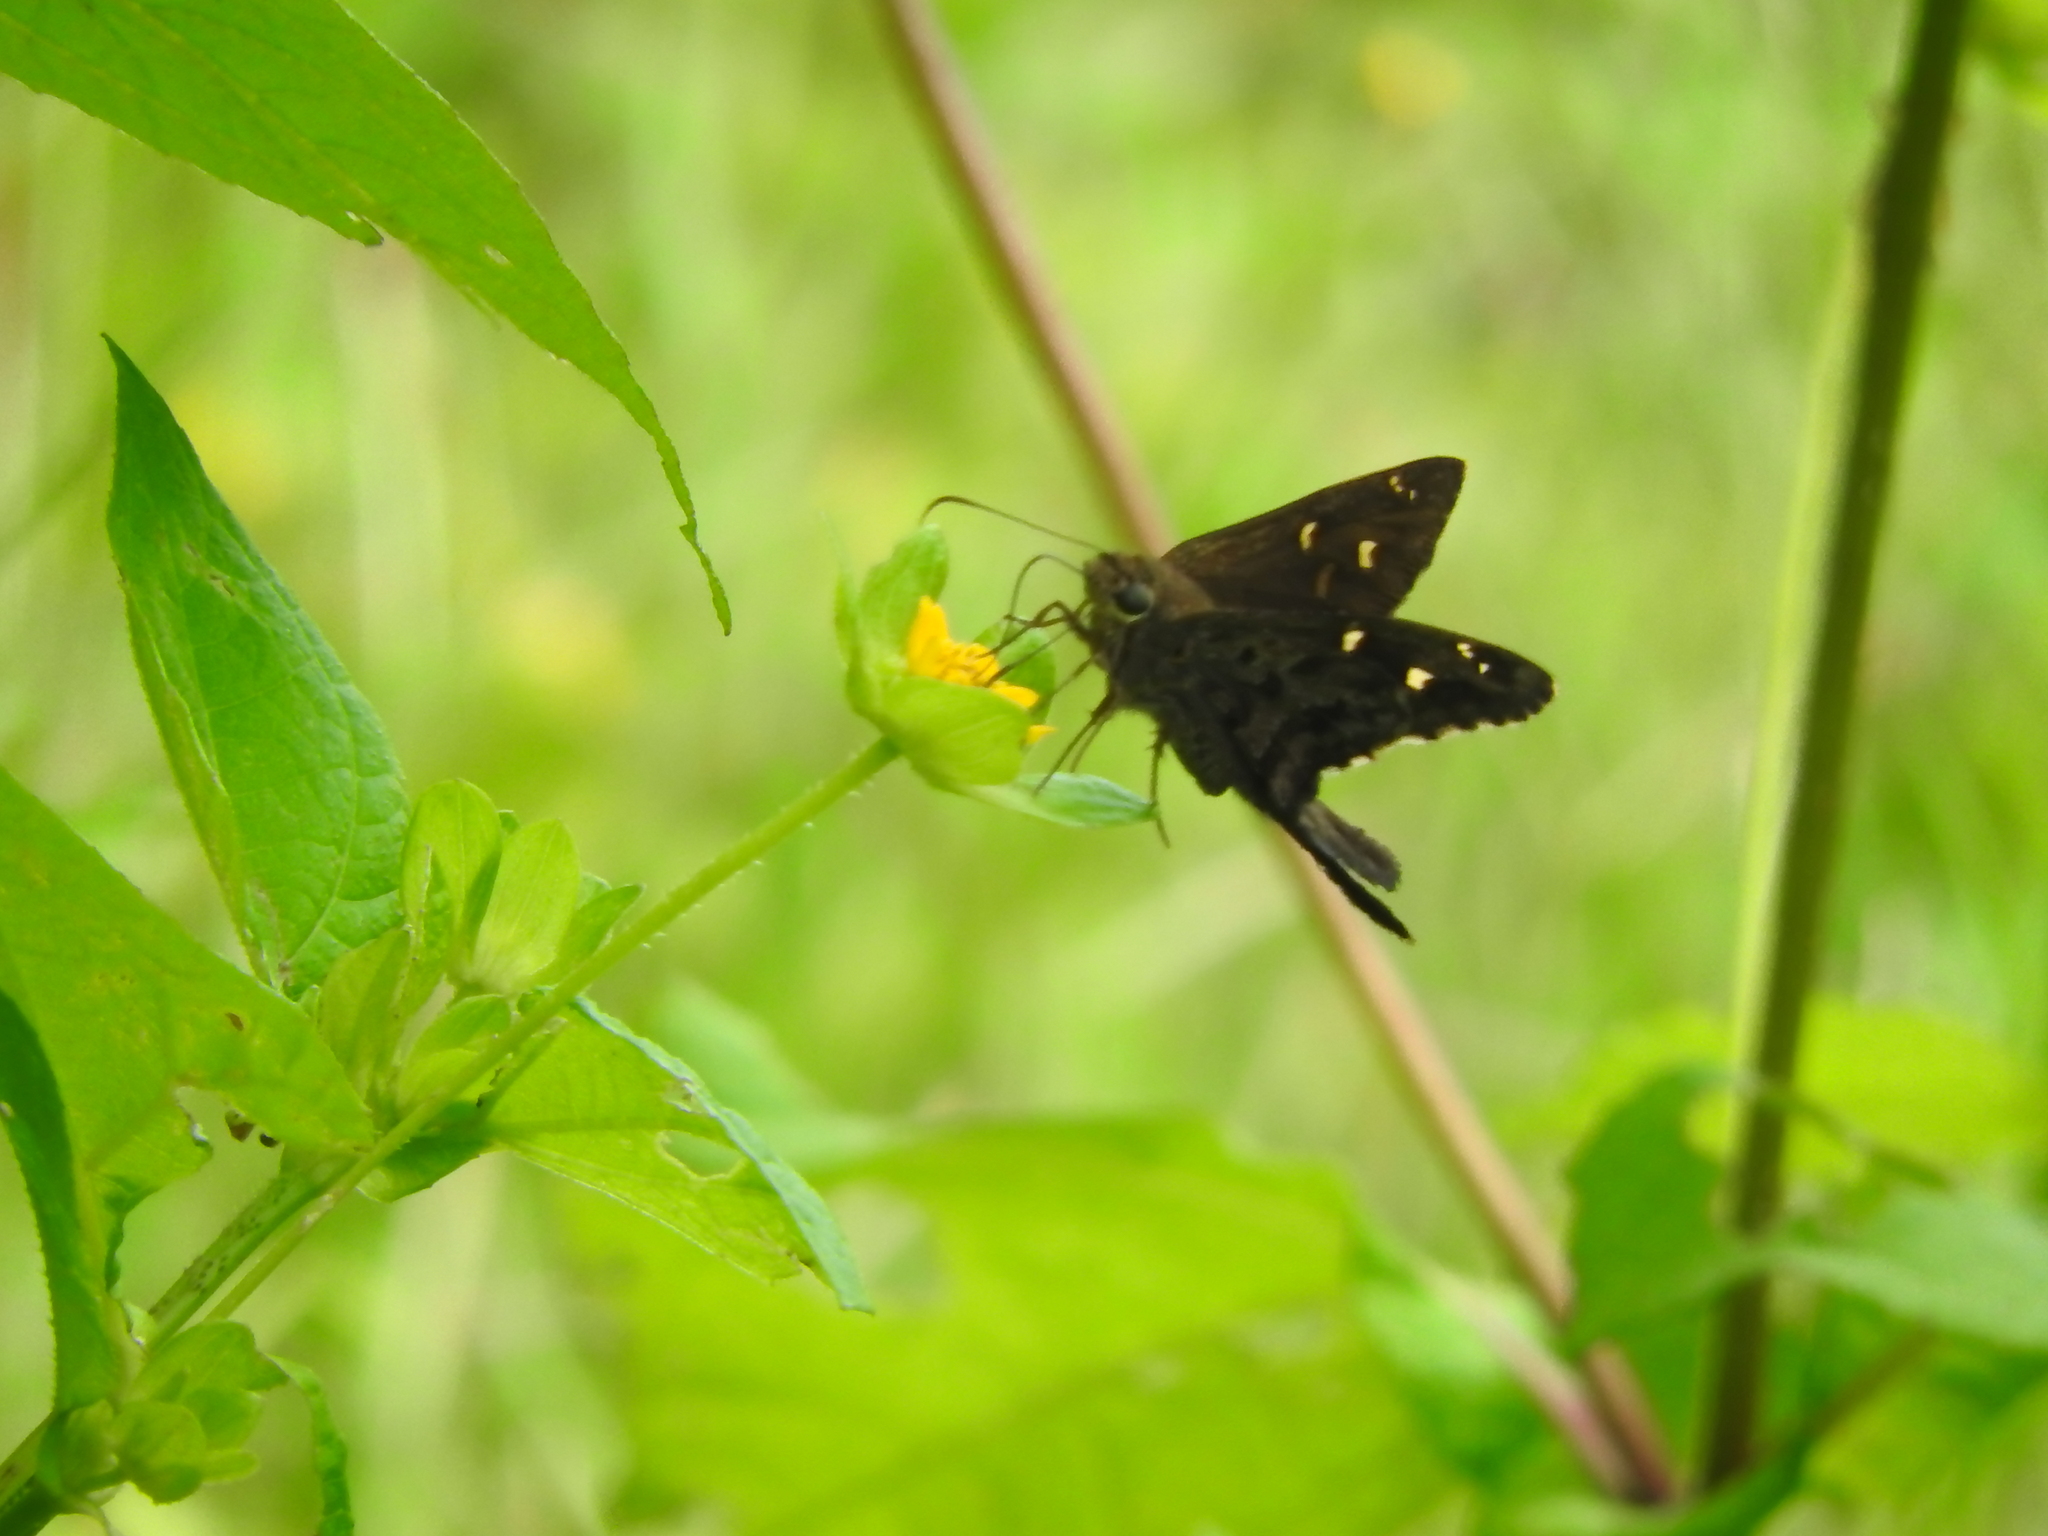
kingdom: Animalia
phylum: Arthropoda
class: Insecta
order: Lepidoptera
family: Hesperiidae
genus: Thorybes
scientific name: Thorybes
